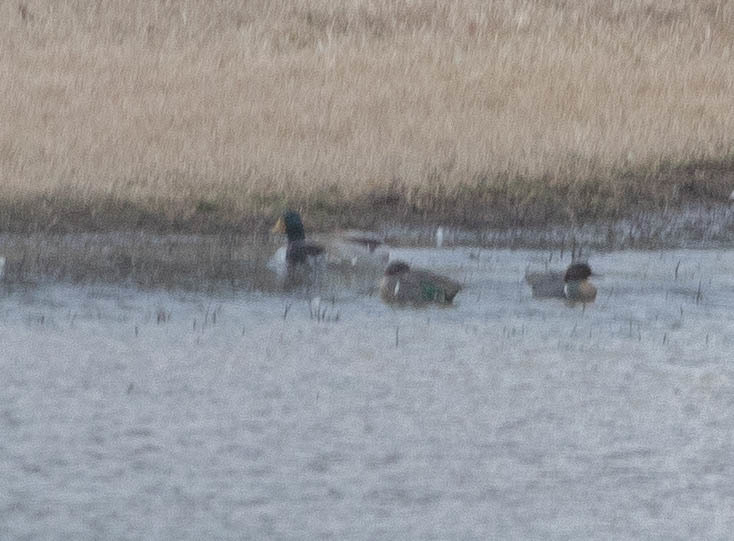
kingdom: Animalia
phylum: Chordata
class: Aves
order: Anseriformes
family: Anatidae
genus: Anas
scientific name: Anas crecca
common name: Eurasian teal
